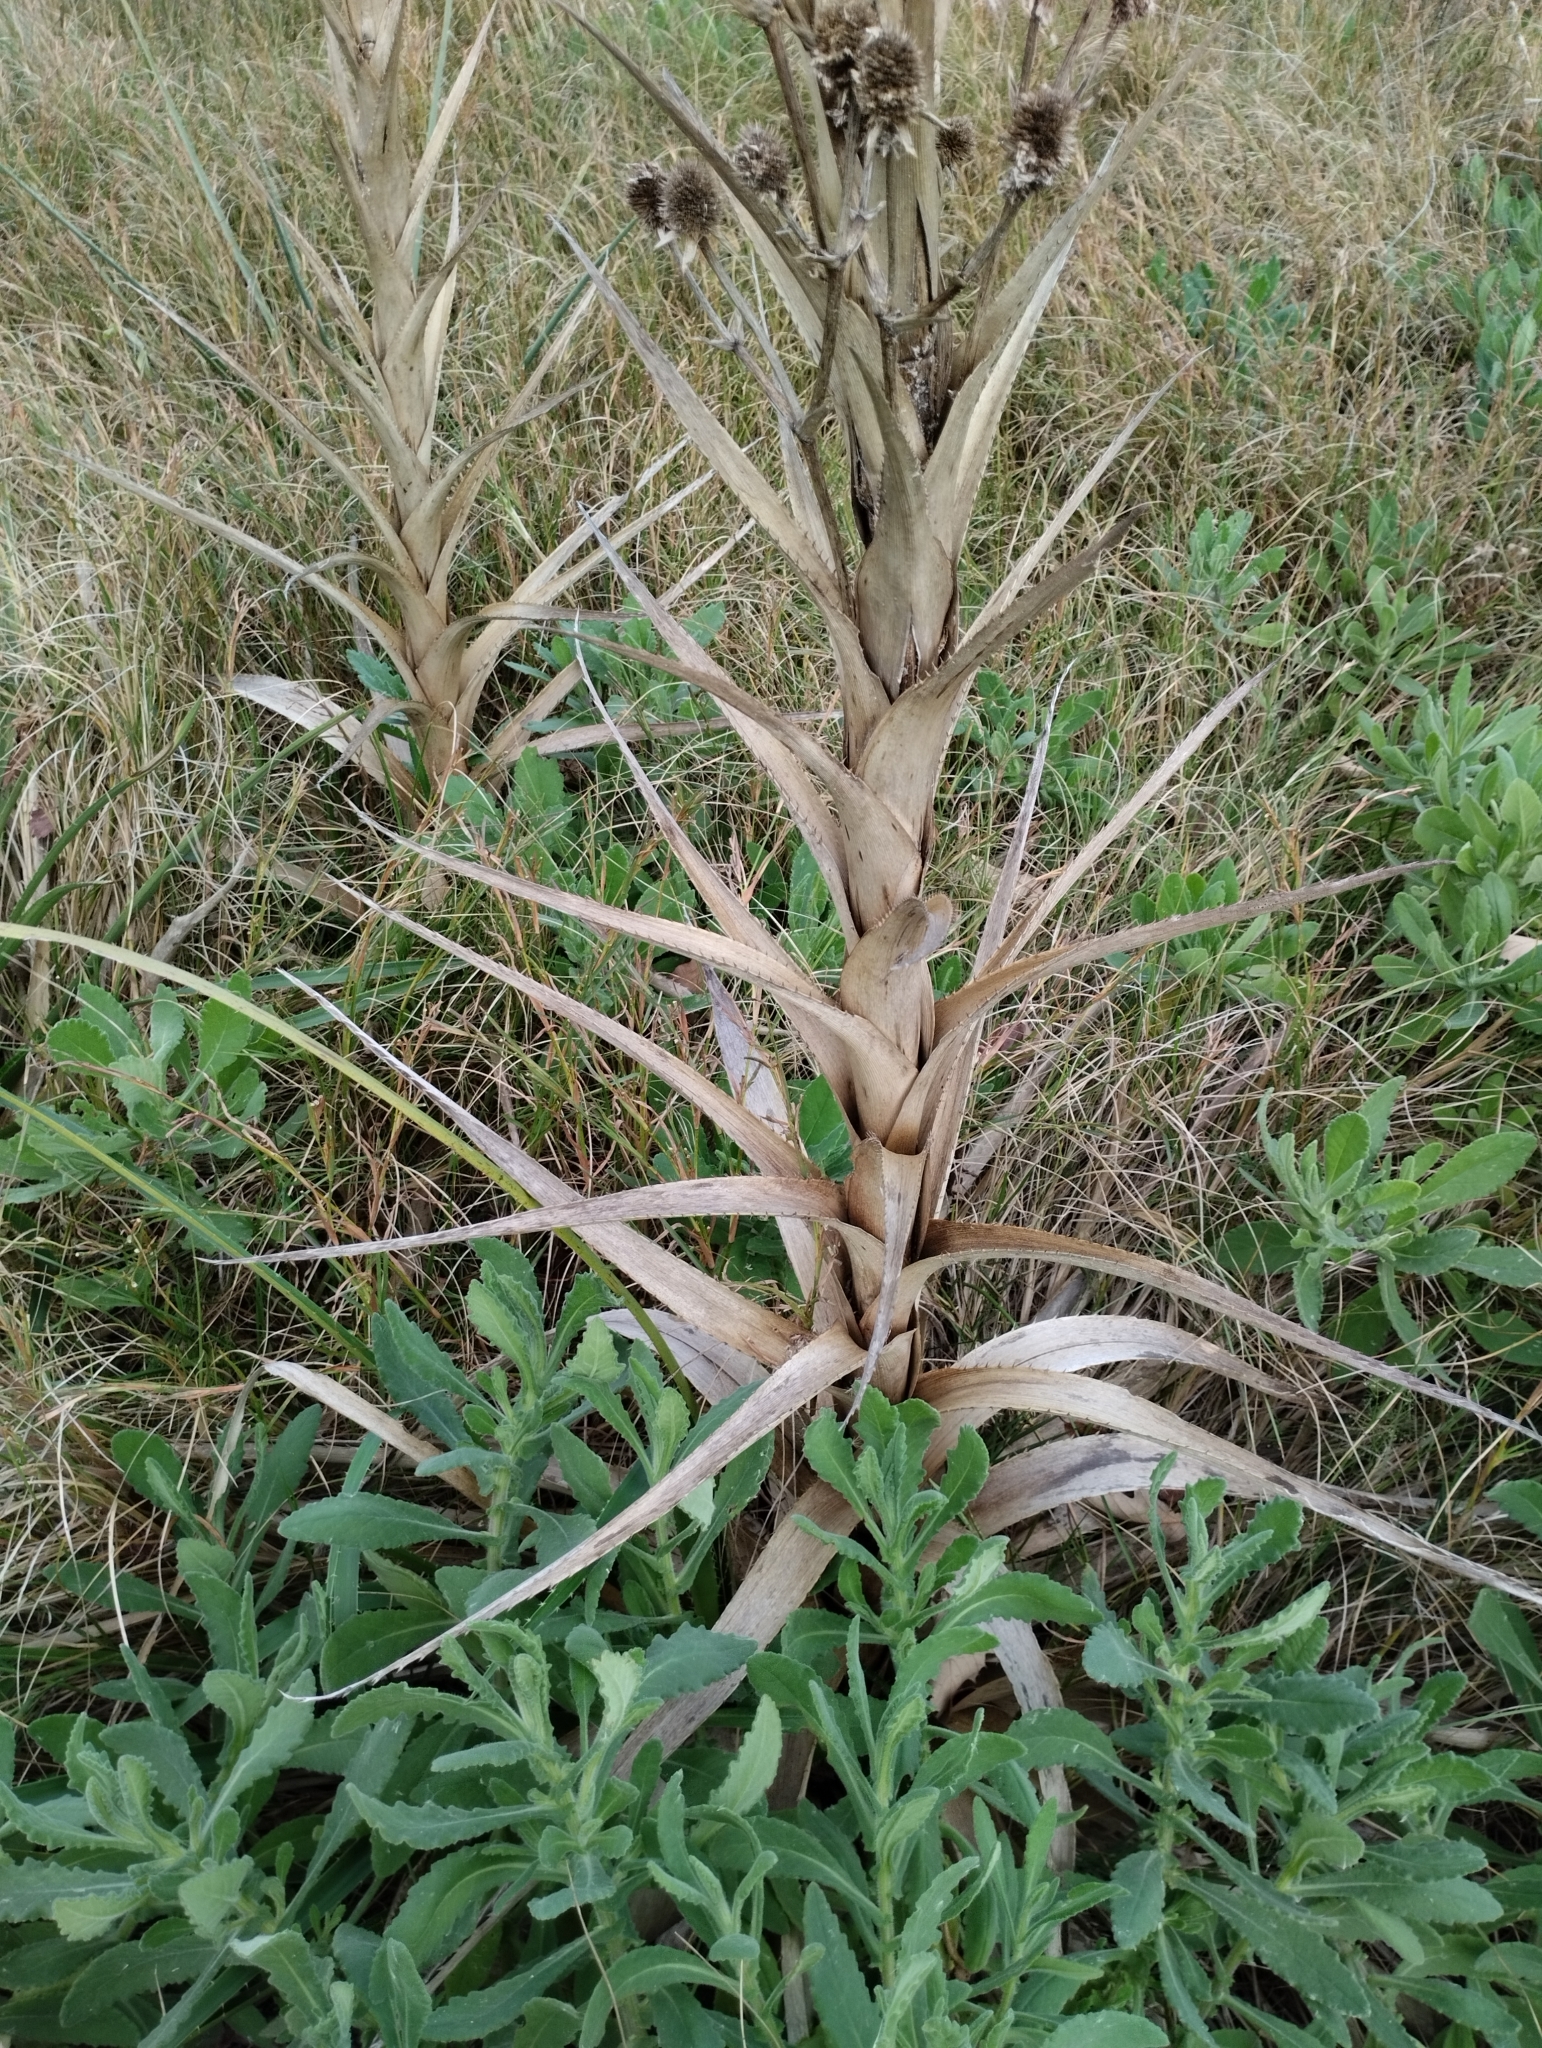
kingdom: Plantae
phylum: Tracheophyta
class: Magnoliopsida
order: Apiales
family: Apiaceae
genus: Eryngium
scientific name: Eryngium eburneum
